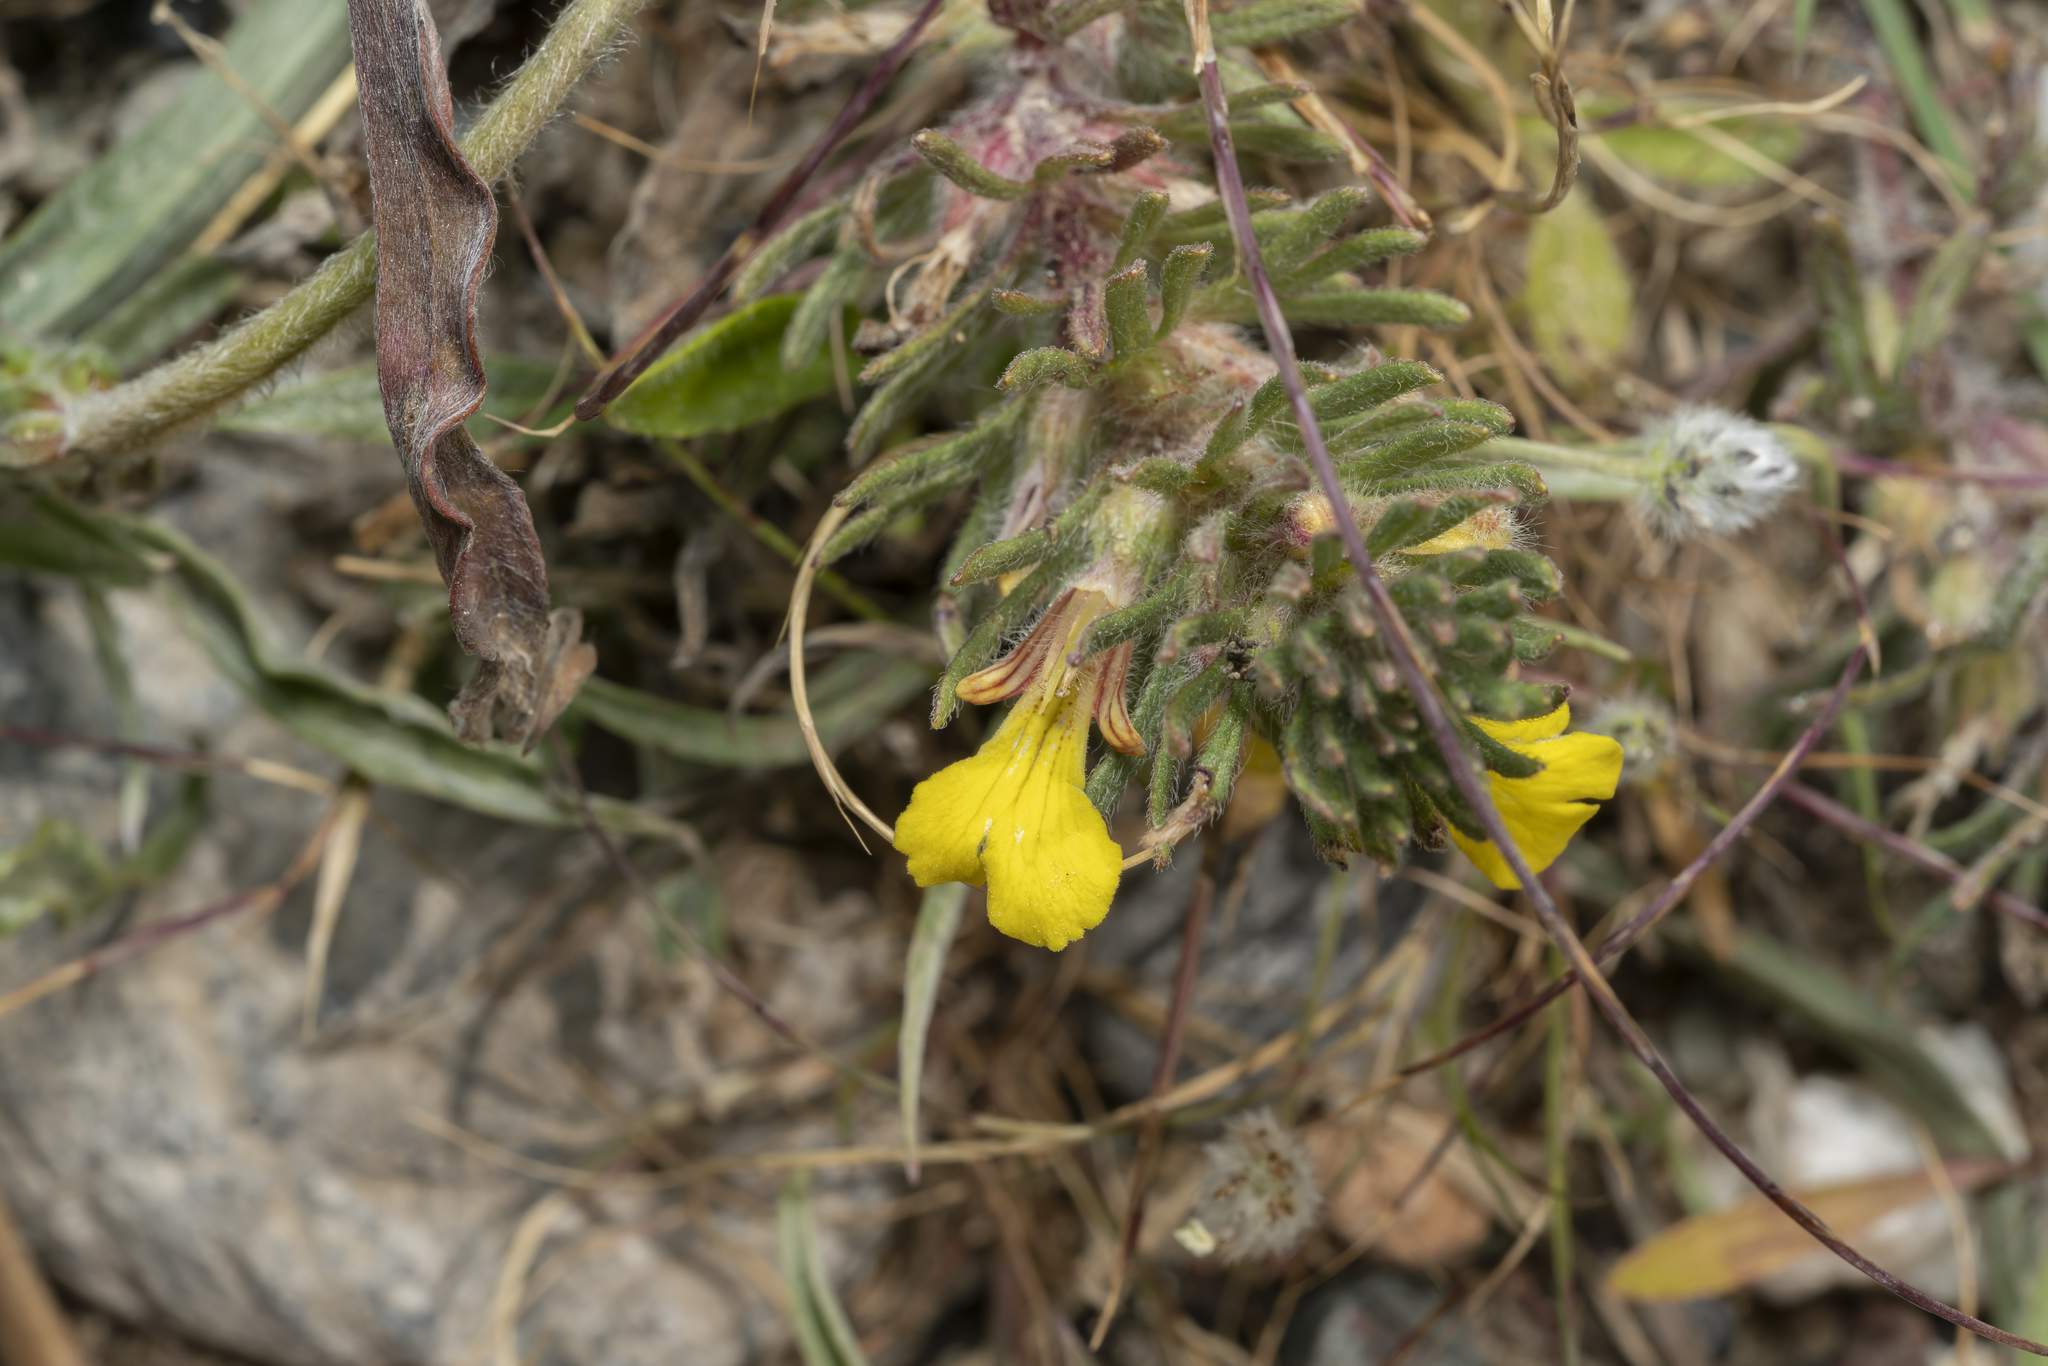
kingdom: Plantae
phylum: Tracheophyta
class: Magnoliopsida
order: Lamiales
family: Lamiaceae
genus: Ajuga
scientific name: Ajuga chamaepitys
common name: Ground-pine
